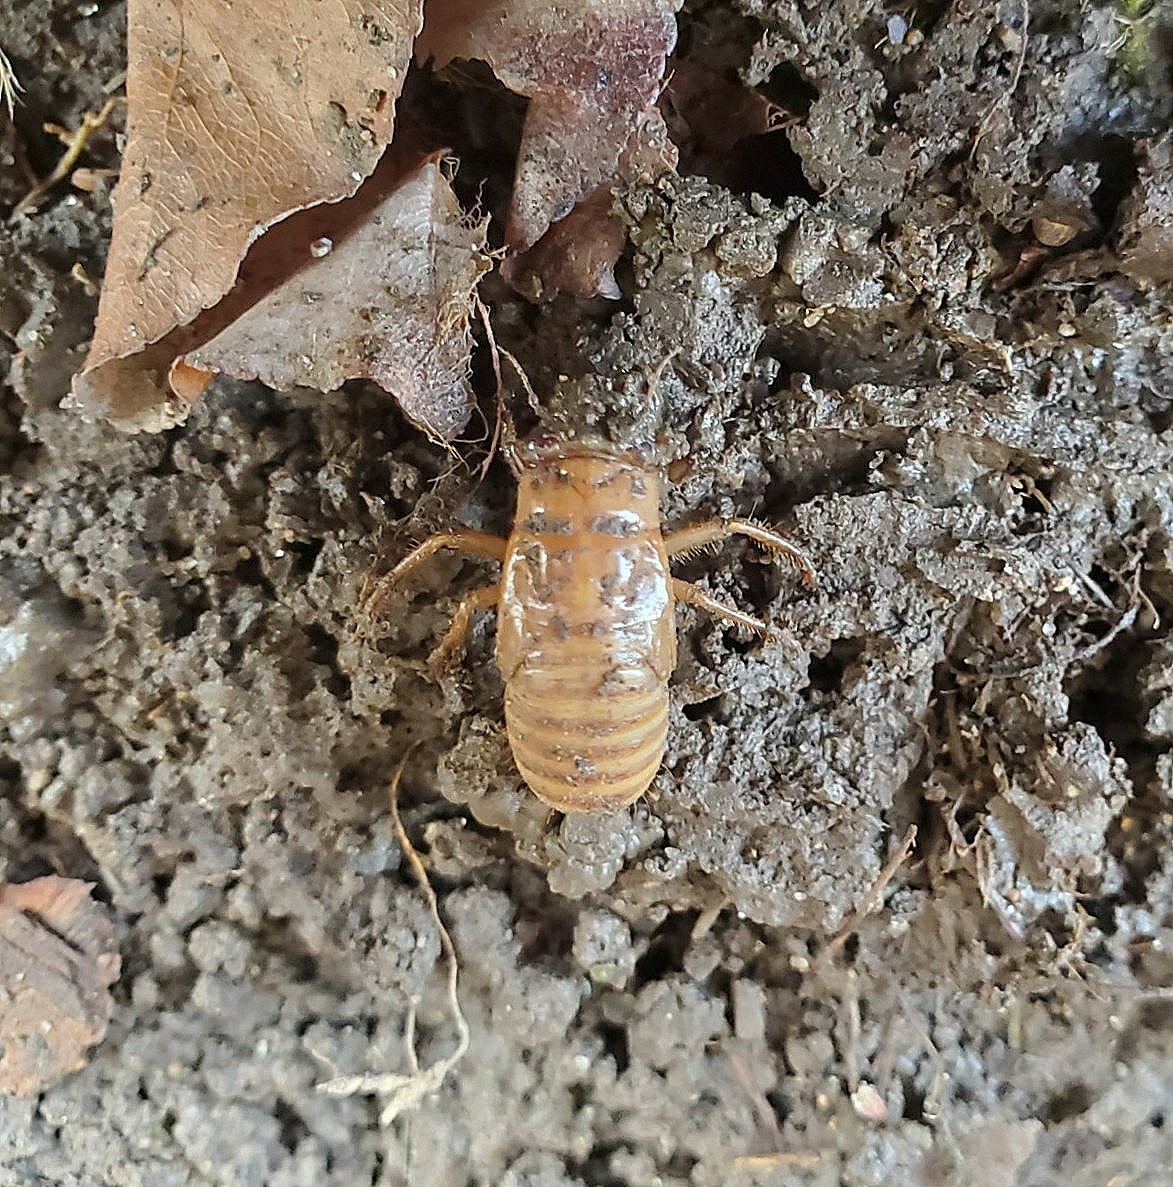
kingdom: Animalia
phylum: Arthropoda
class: Insecta
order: Hemiptera
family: Cicadidae
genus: Magicicada
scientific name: Magicicada
